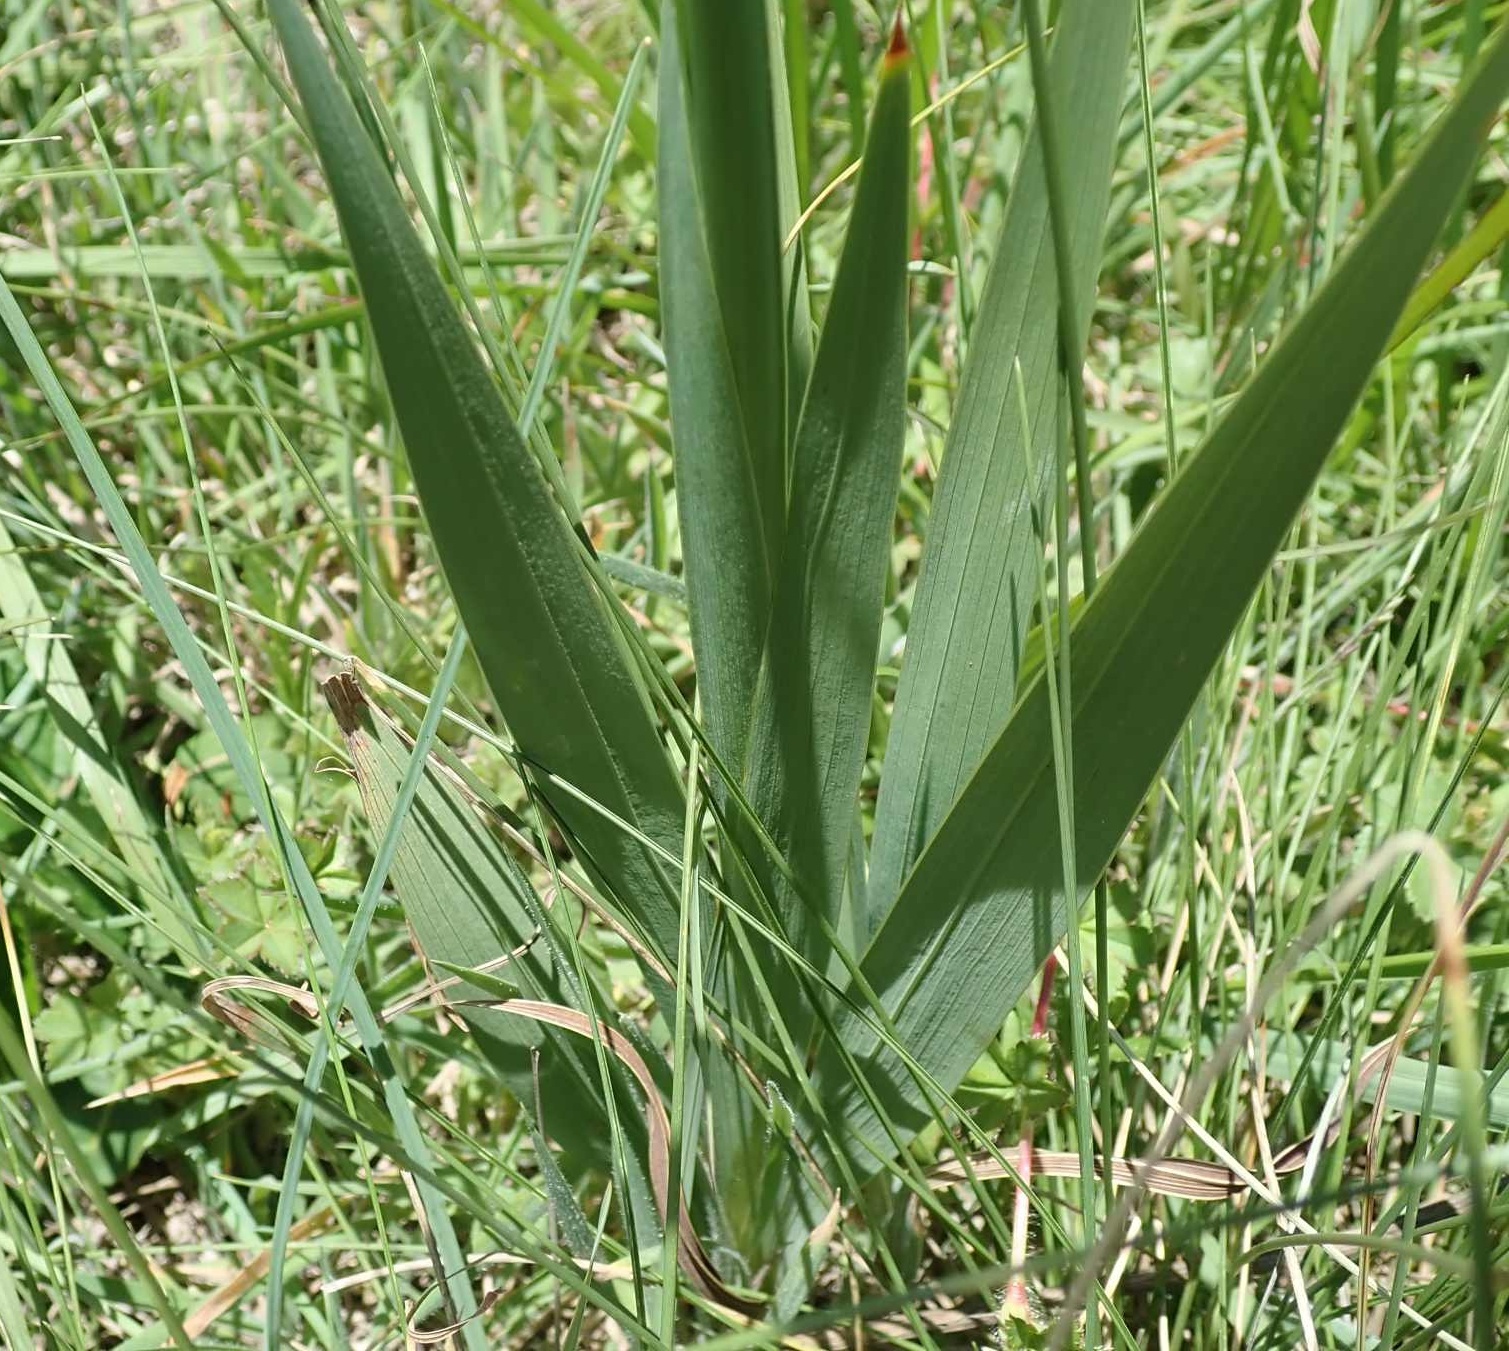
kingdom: Plantae
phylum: Tracheophyta
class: Liliopsida
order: Asparagales
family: Iridaceae
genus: Gladiolus
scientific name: Gladiolus papilio
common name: Goldblotch gladiolus
